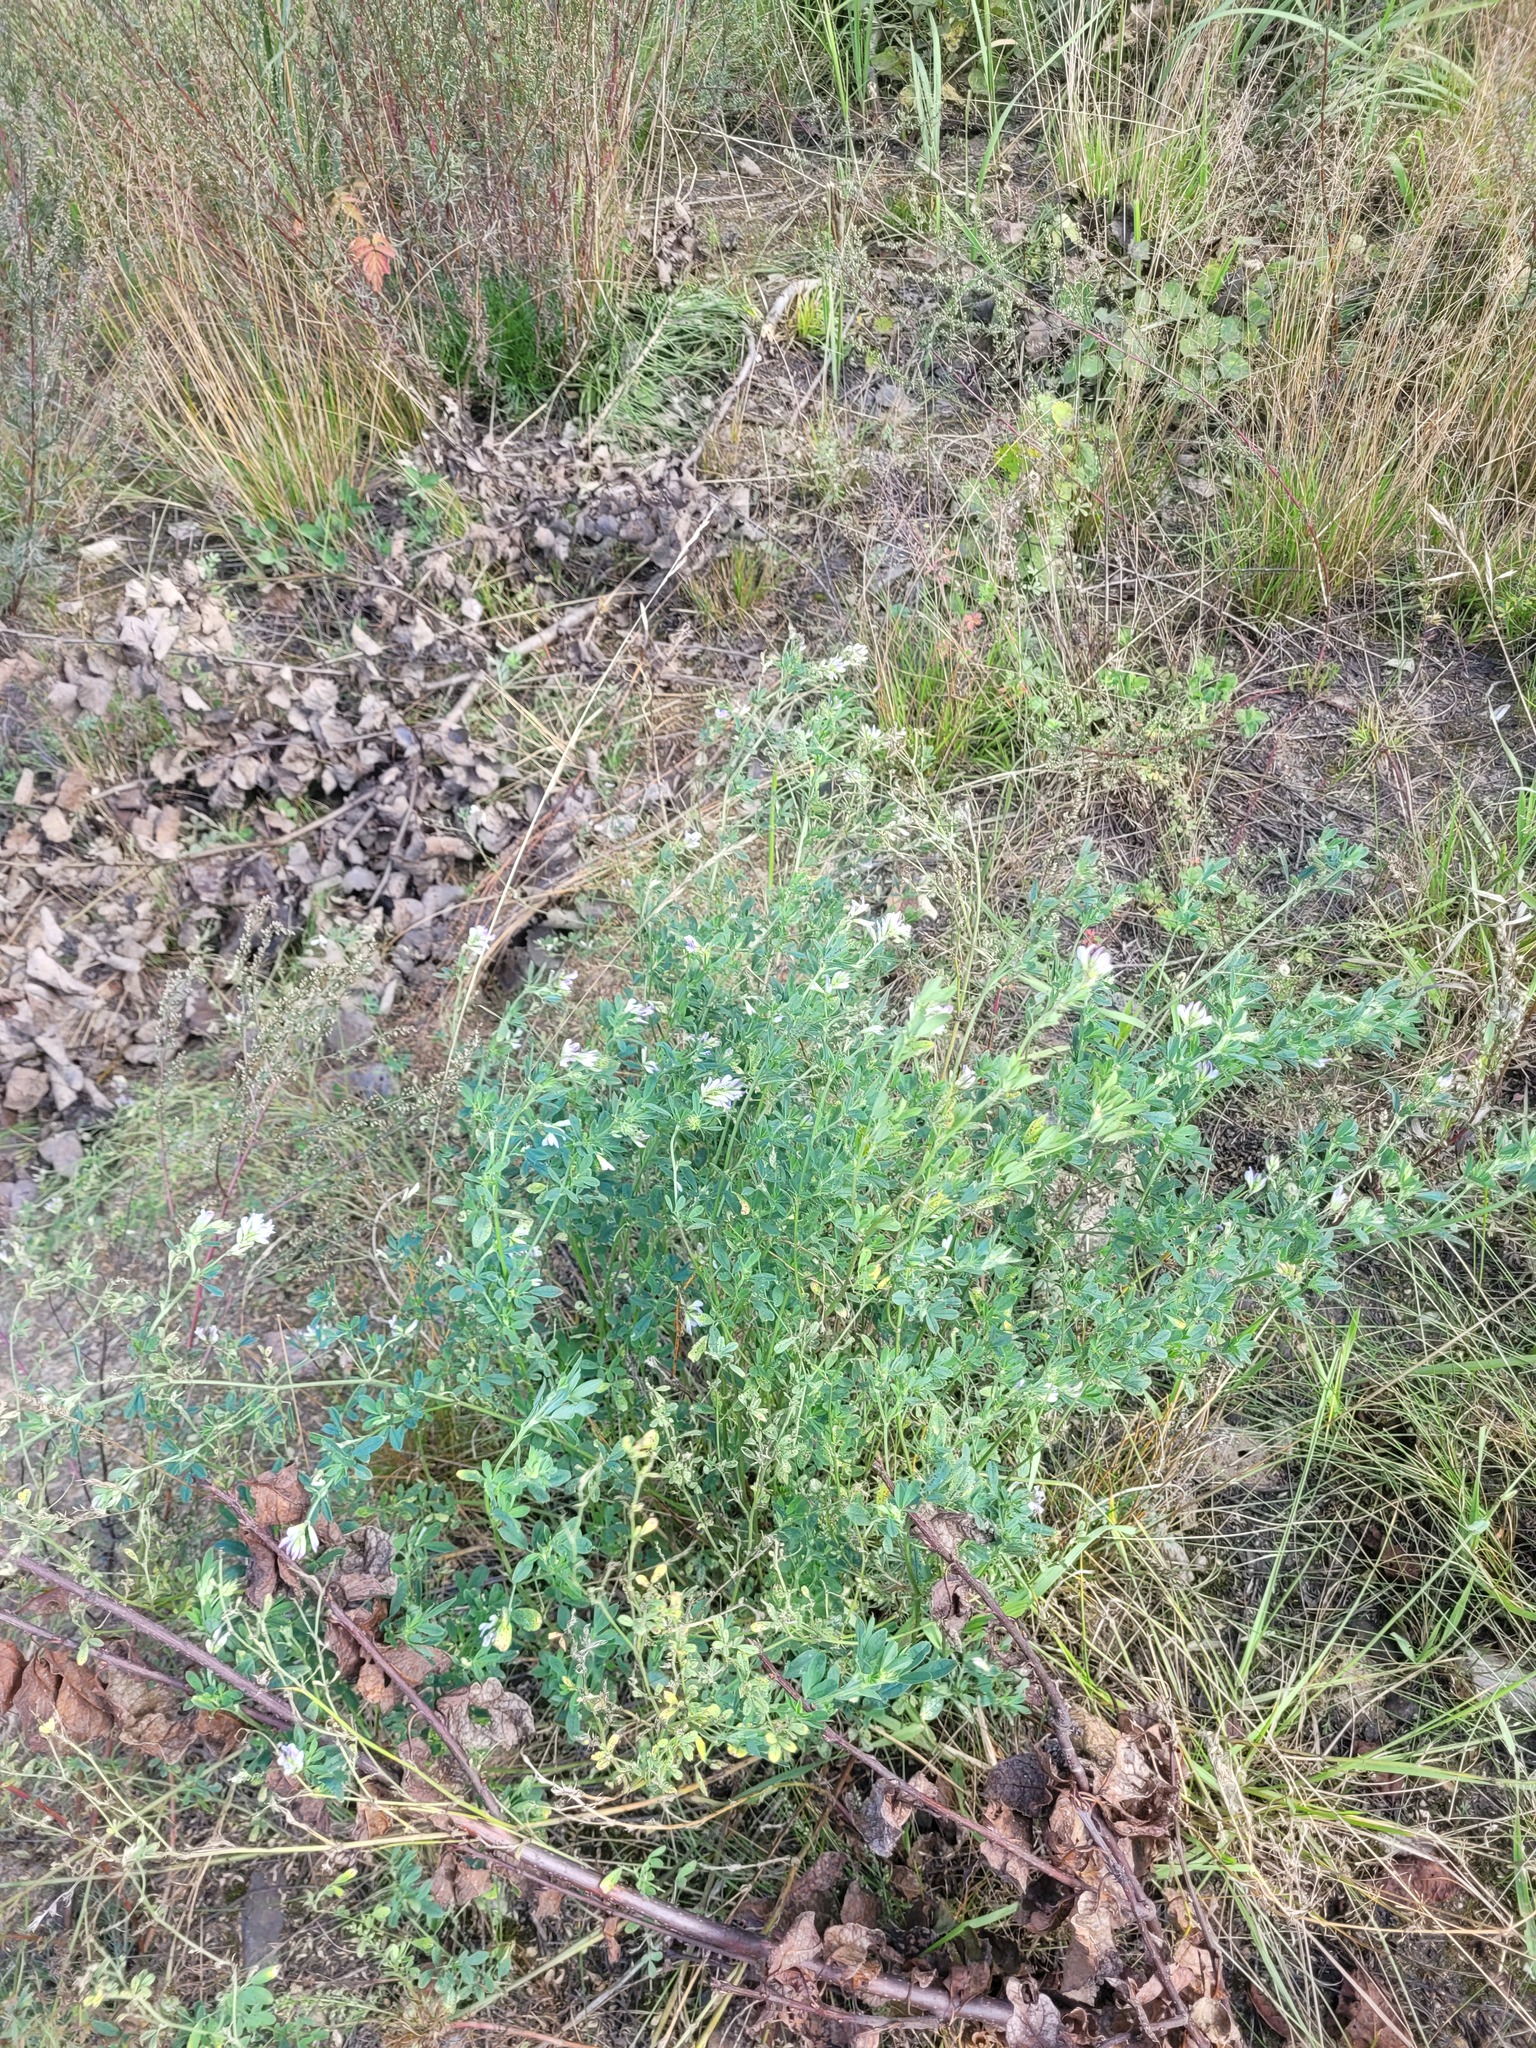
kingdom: Plantae
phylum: Tracheophyta
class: Magnoliopsida
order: Fabales
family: Fabaceae
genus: Medicago
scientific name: Medicago varia
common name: Sand lucerne
